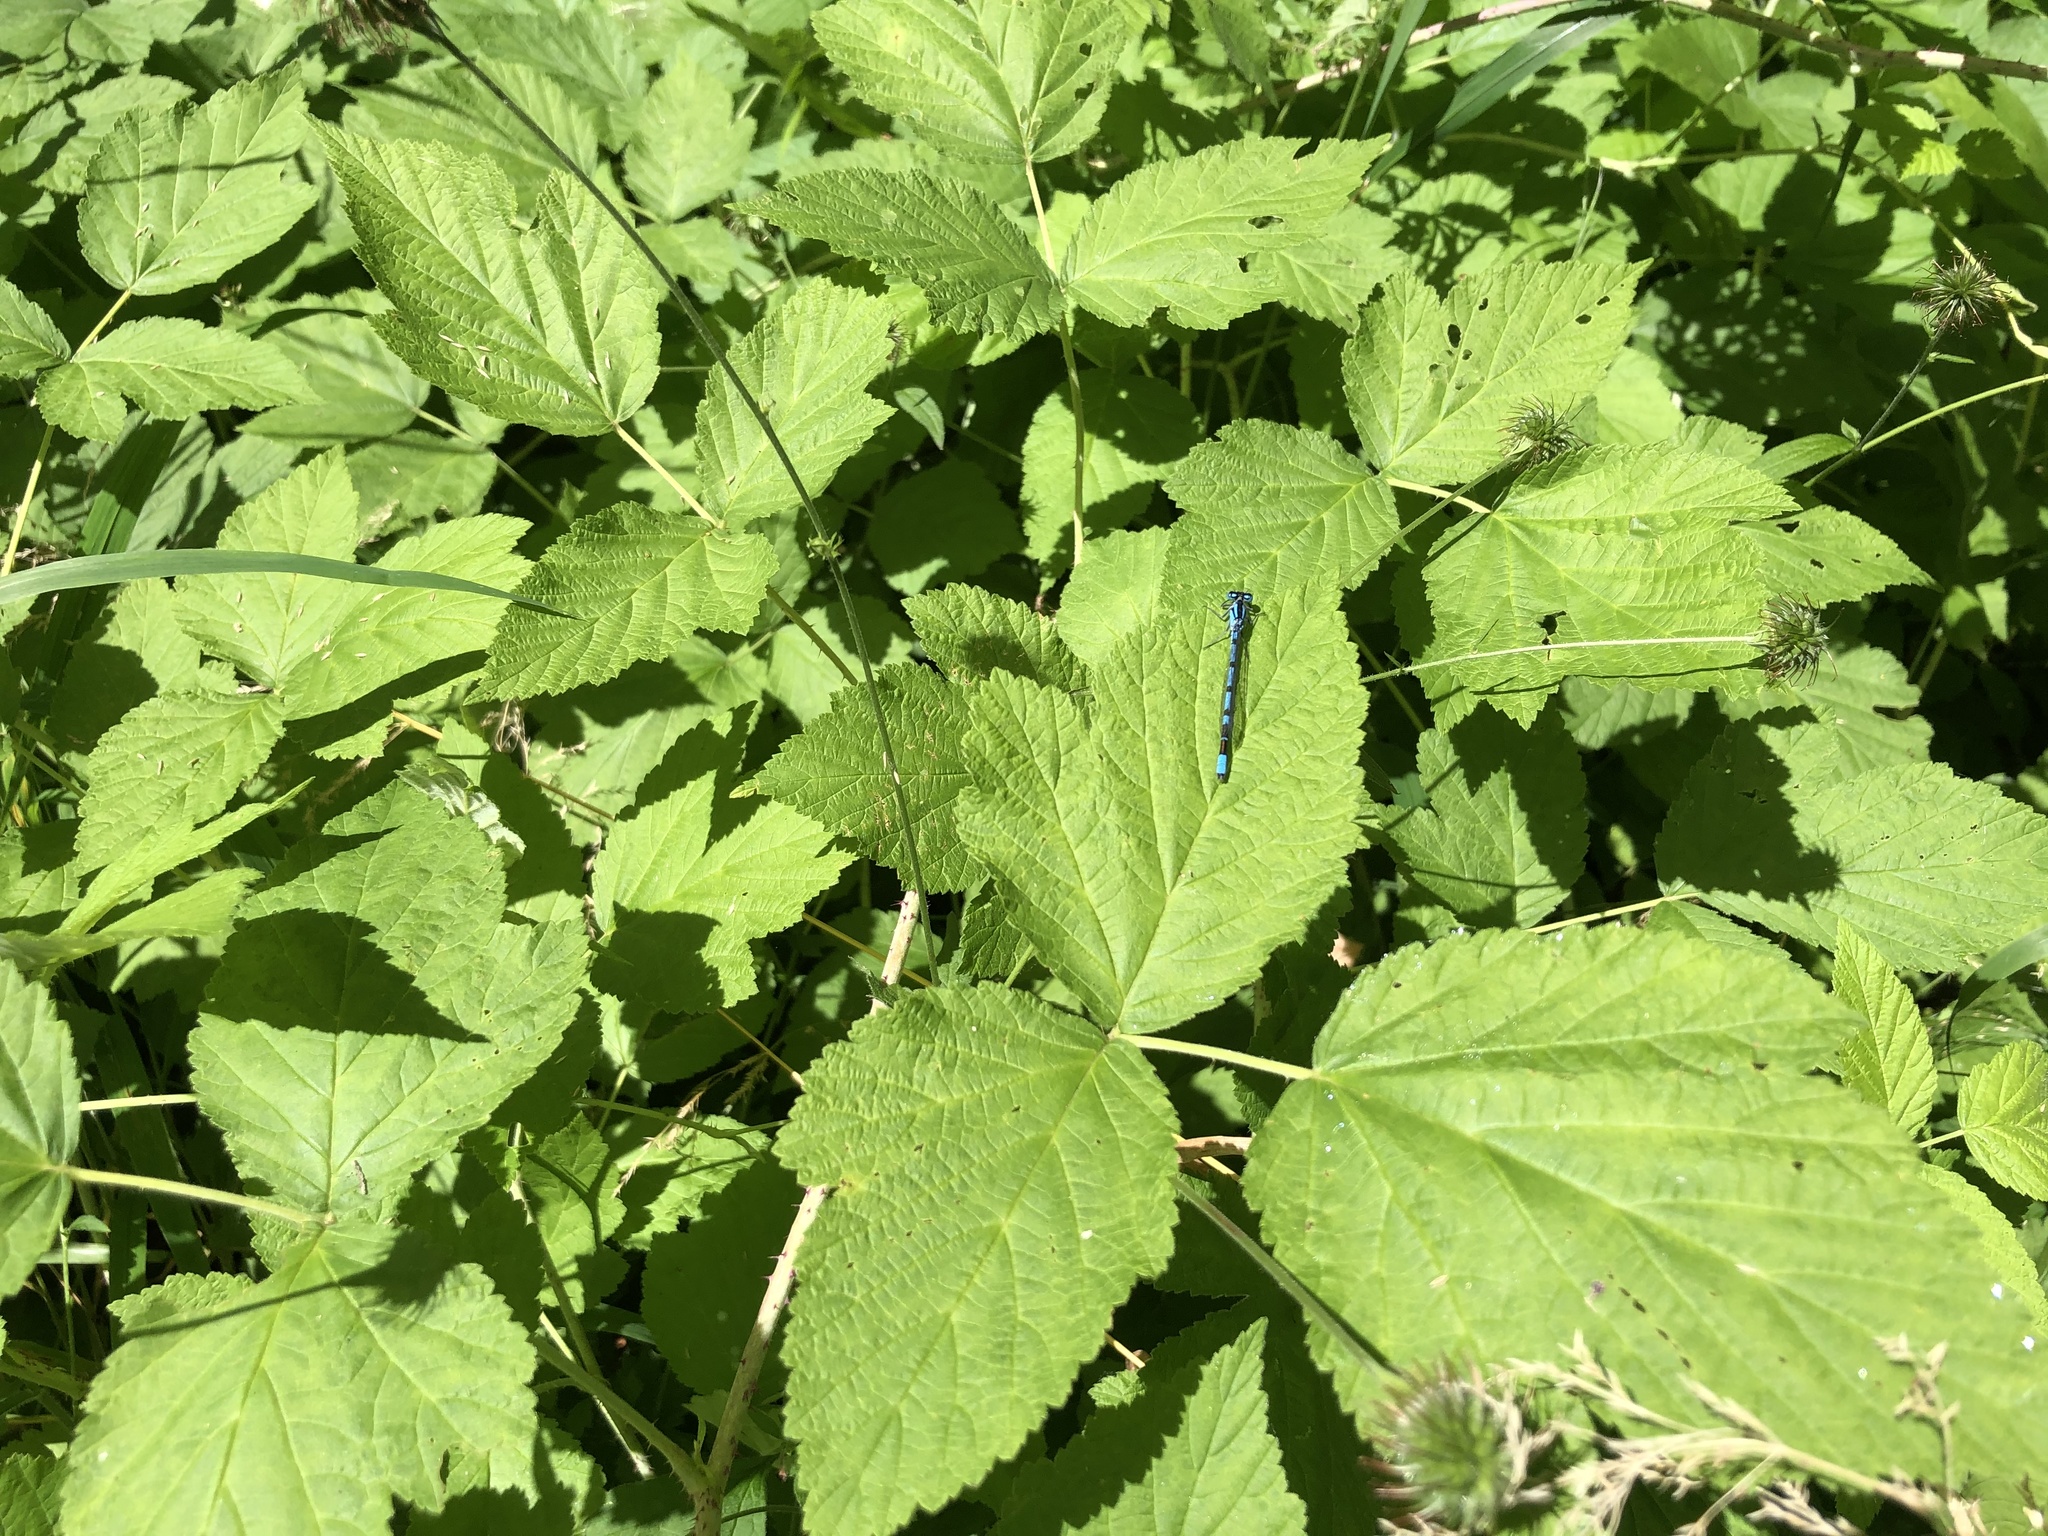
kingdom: Animalia
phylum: Arthropoda
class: Insecta
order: Odonata
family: Coenagrionidae
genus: Enallagma
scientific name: Enallagma cyathigerum
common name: Common blue damselfly
